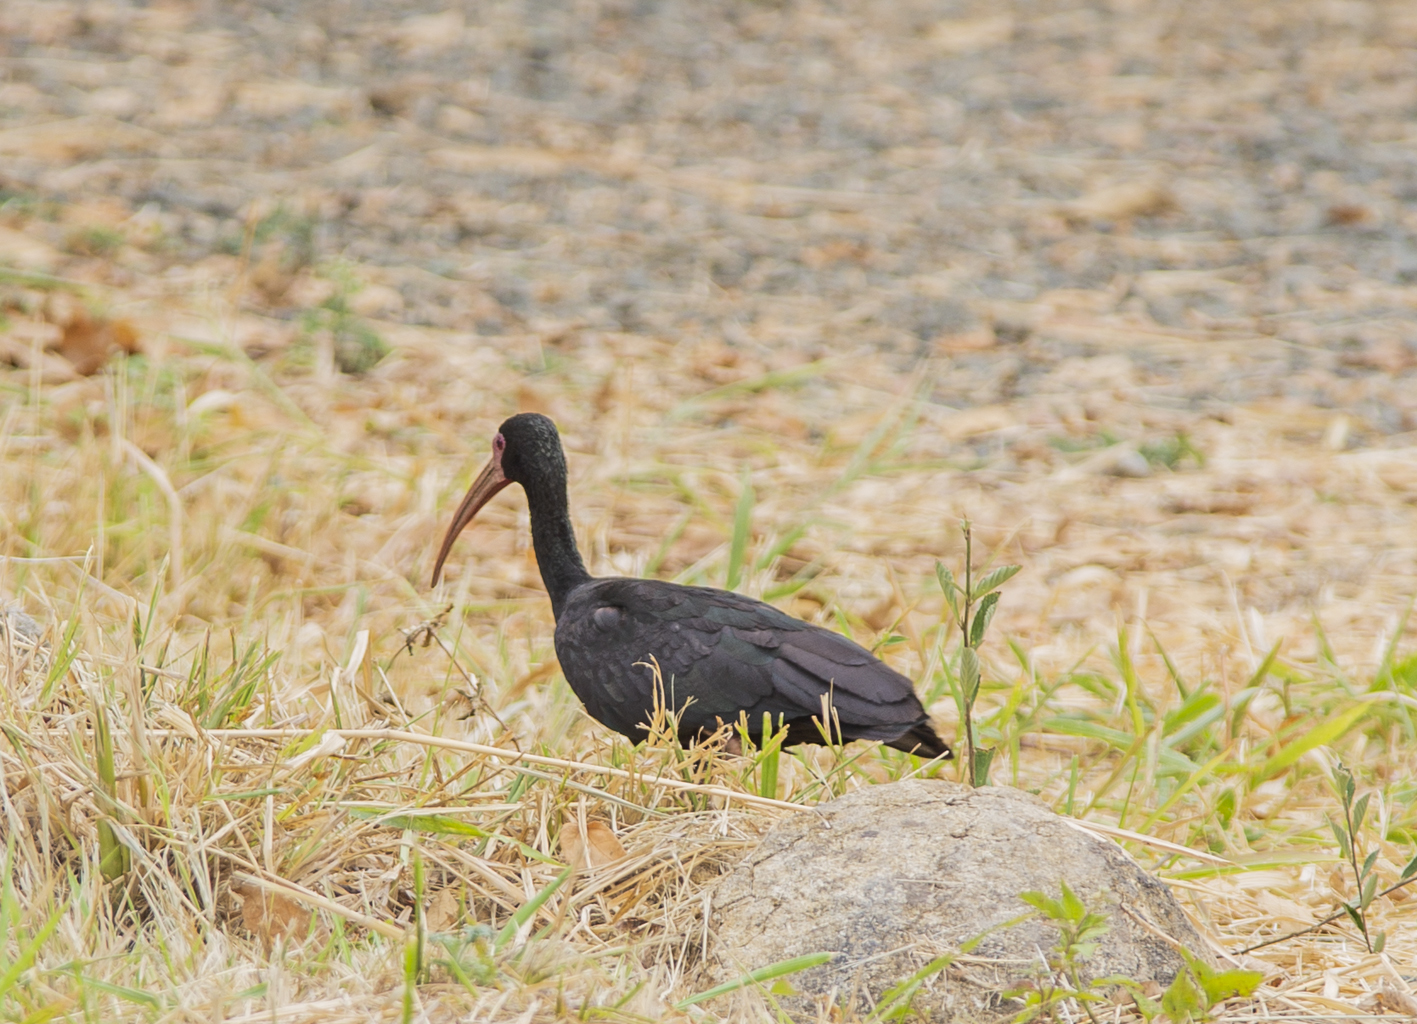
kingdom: Animalia
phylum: Chordata
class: Aves
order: Pelecaniformes
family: Threskiornithidae
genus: Phimosus
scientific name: Phimosus infuscatus
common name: Bare-faced ibis
